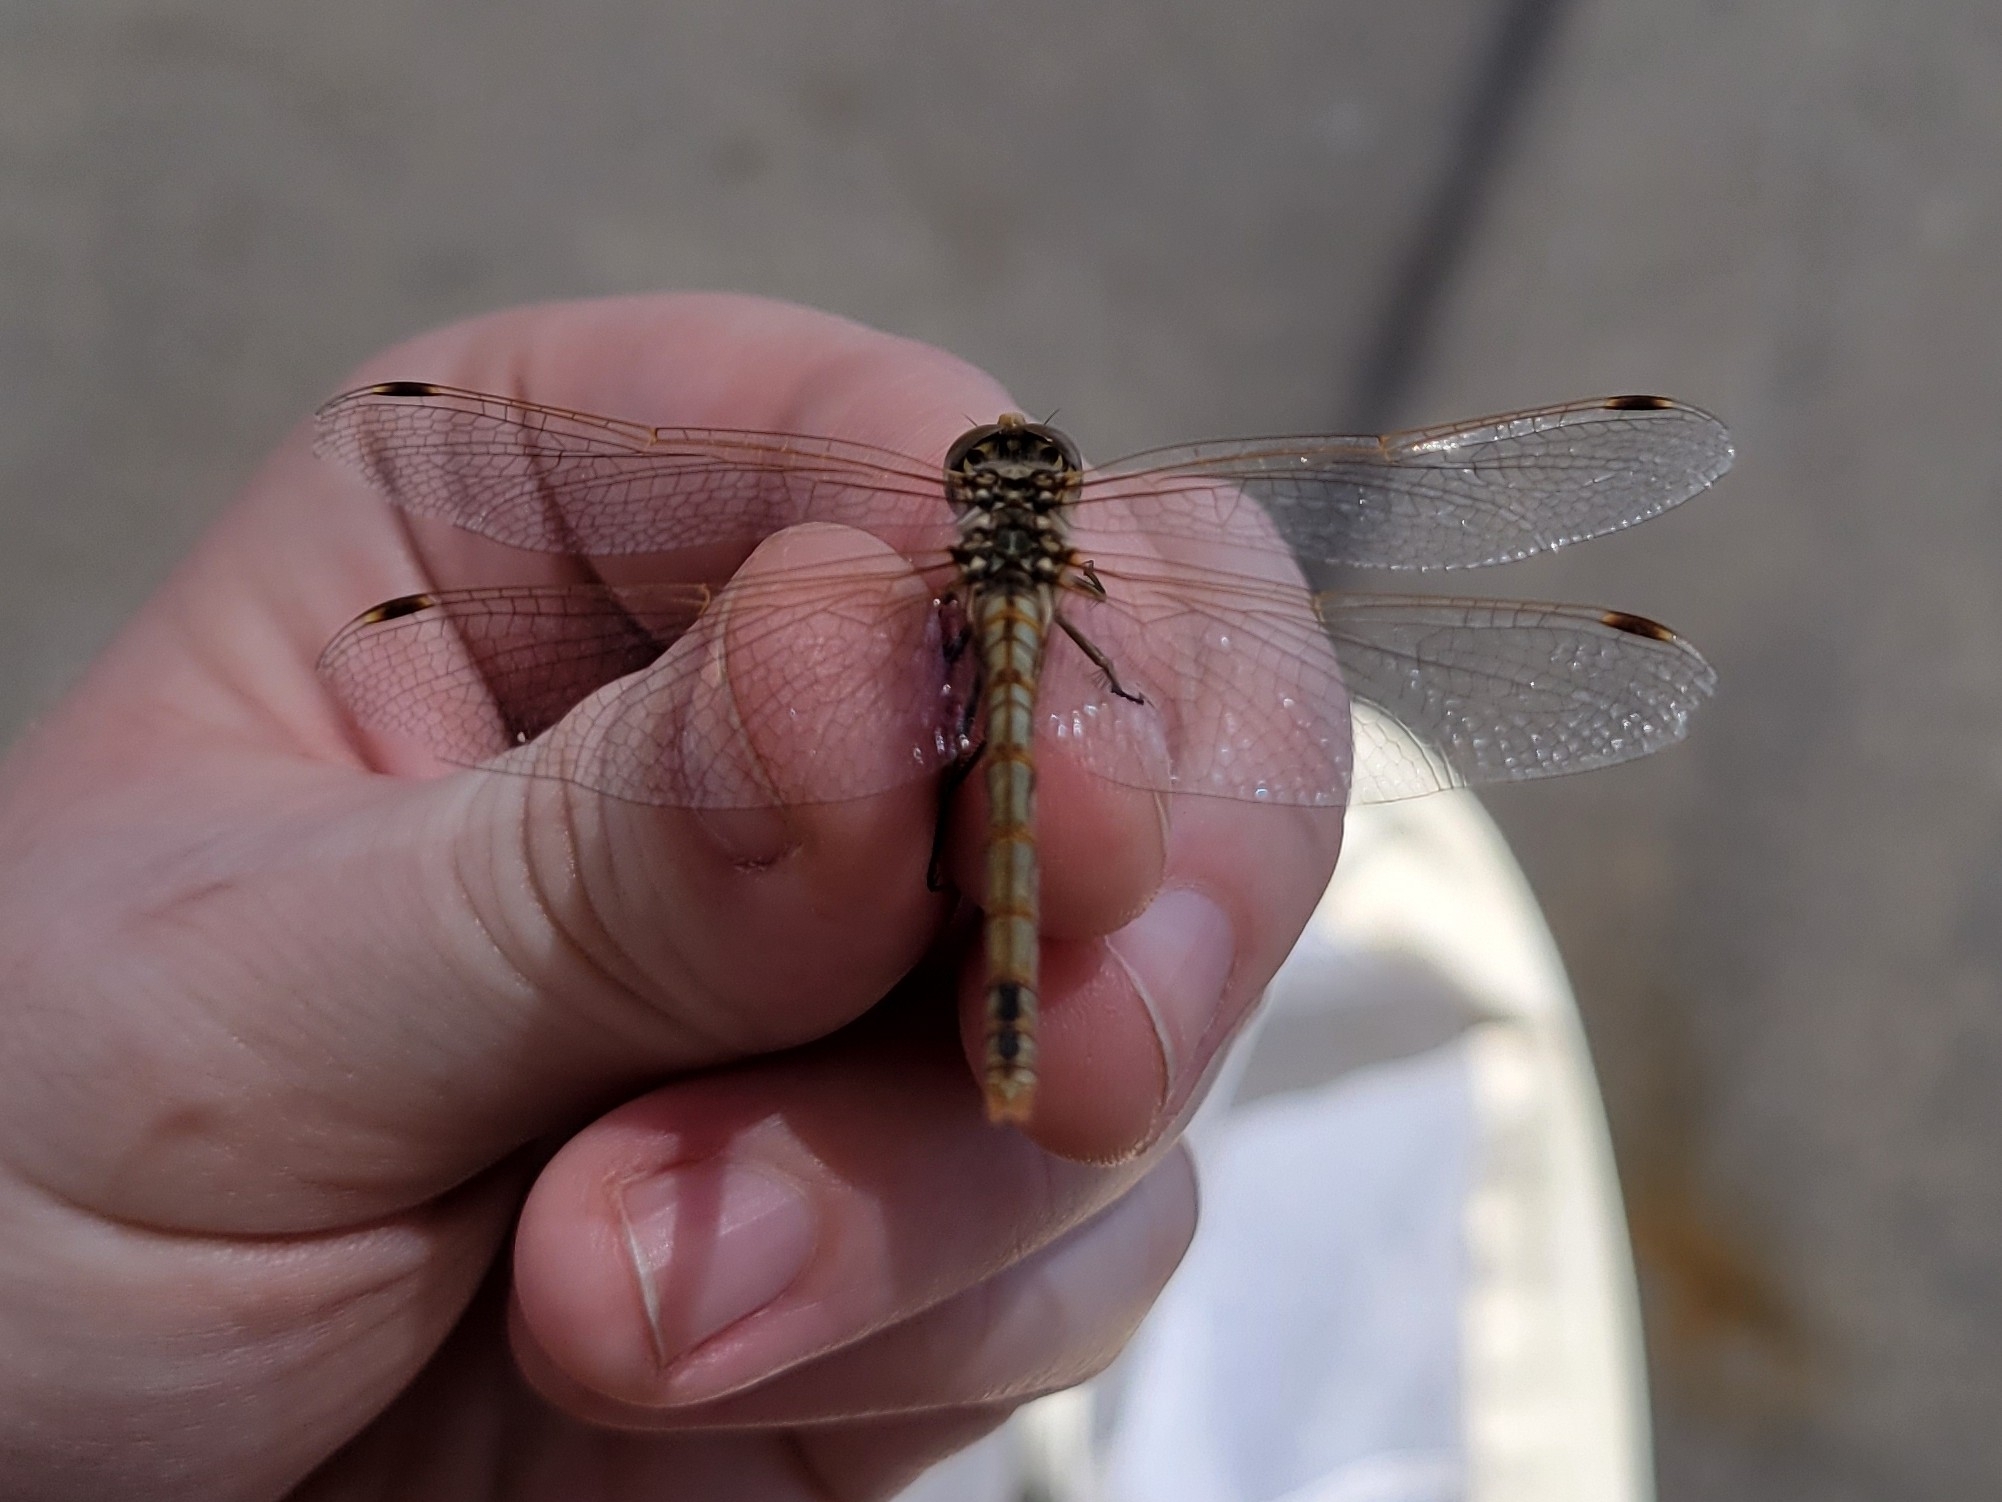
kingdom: Animalia
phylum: Arthropoda
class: Insecta
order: Odonata
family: Libellulidae
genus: Sympetrum
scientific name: Sympetrum corruptum
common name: Variegated meadowhawk
